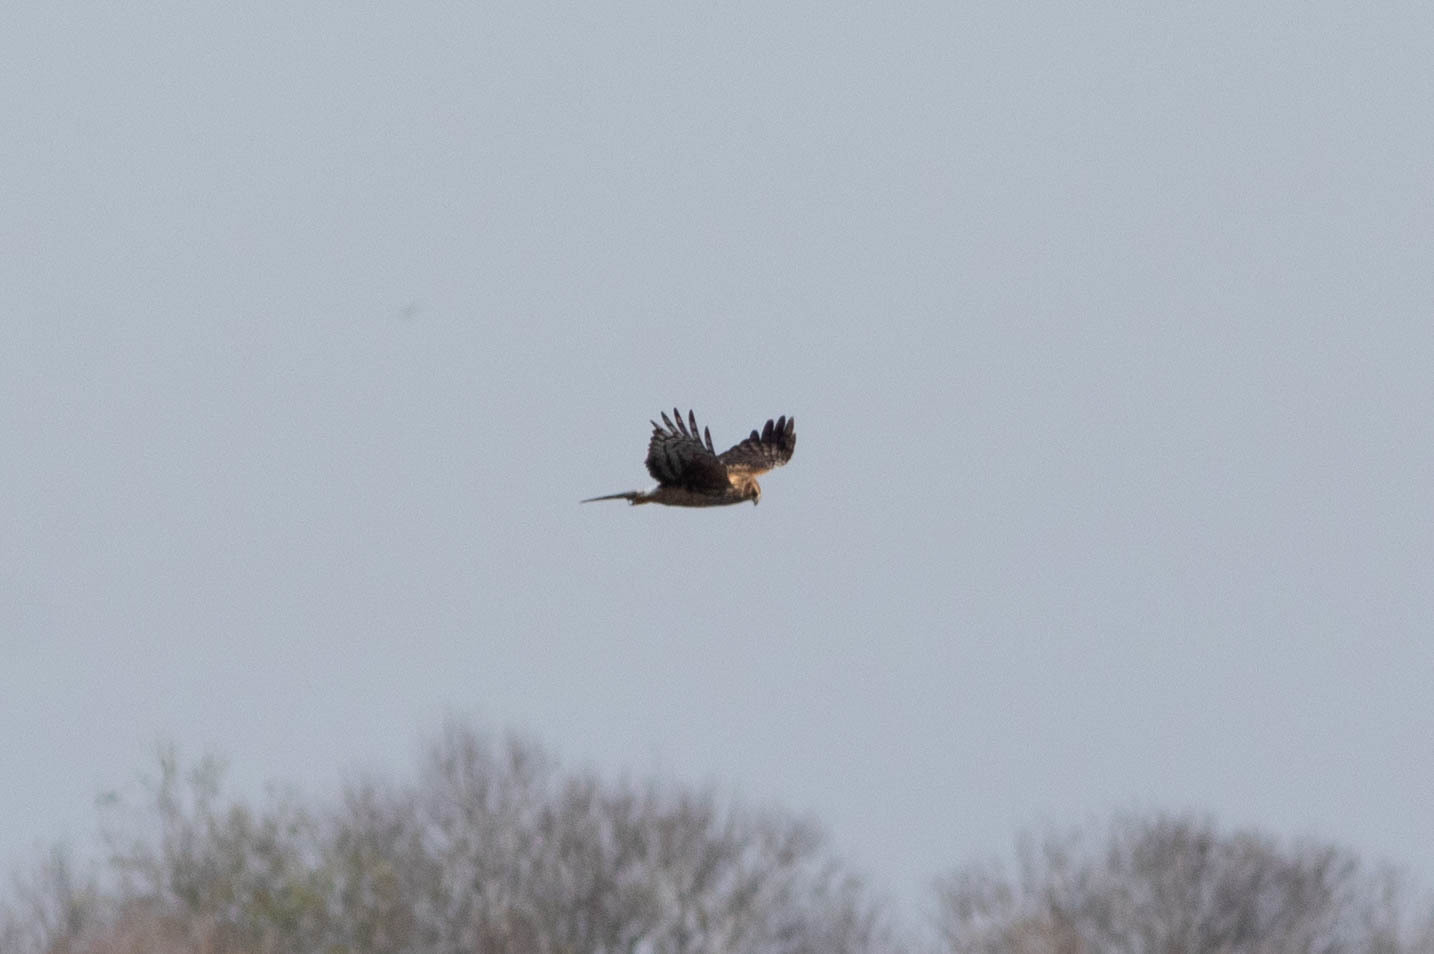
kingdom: Animalia
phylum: Chordata
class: Aves
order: Accipitriformes
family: Accipitridae
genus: Circus
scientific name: Circus cyaneus
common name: Hen harrier
